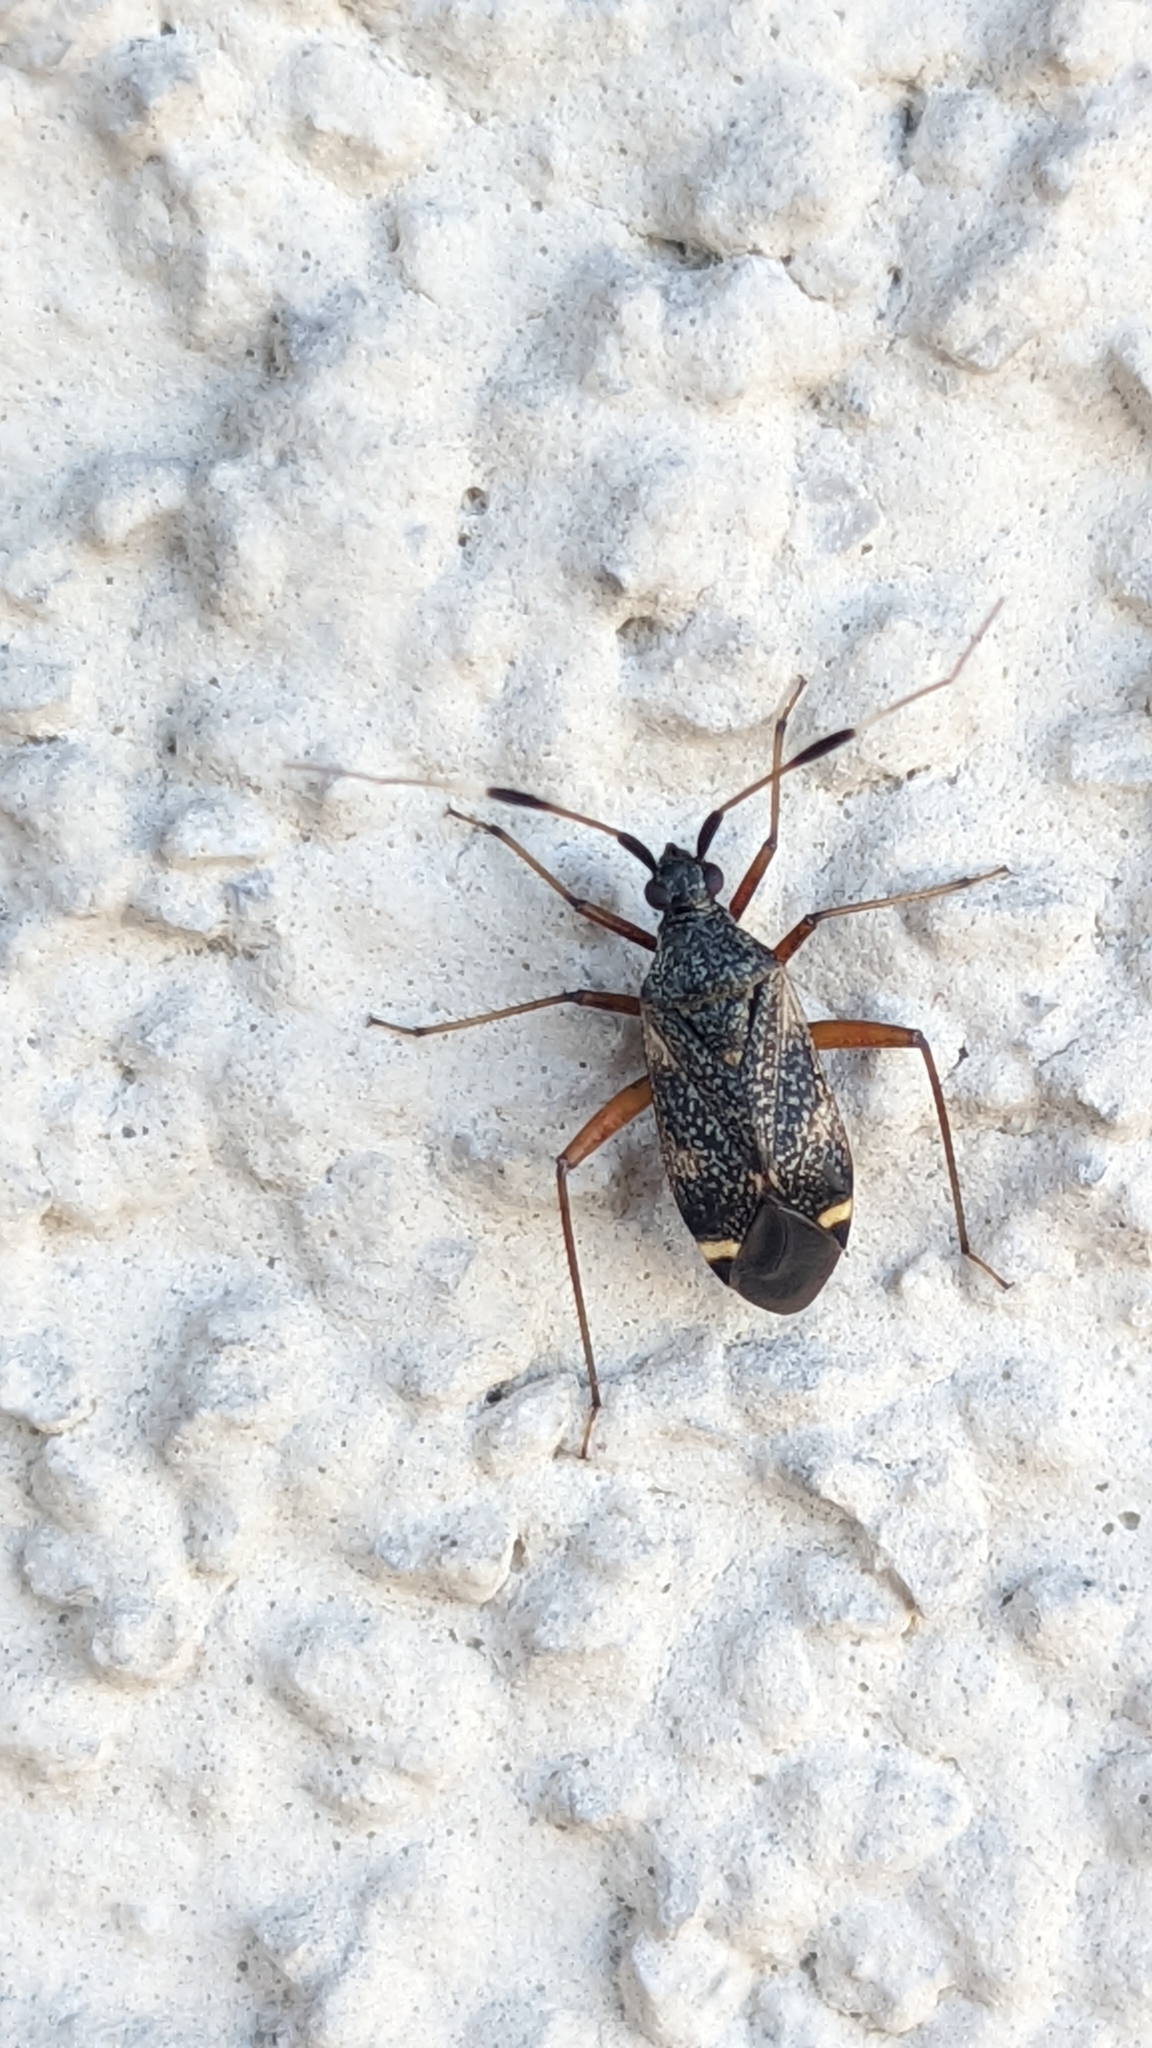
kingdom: Animalia
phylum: Arthropoda
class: Insecta
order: Hemiptera
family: Miridae
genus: Closterotomus
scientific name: Closterotomus biclavatus
